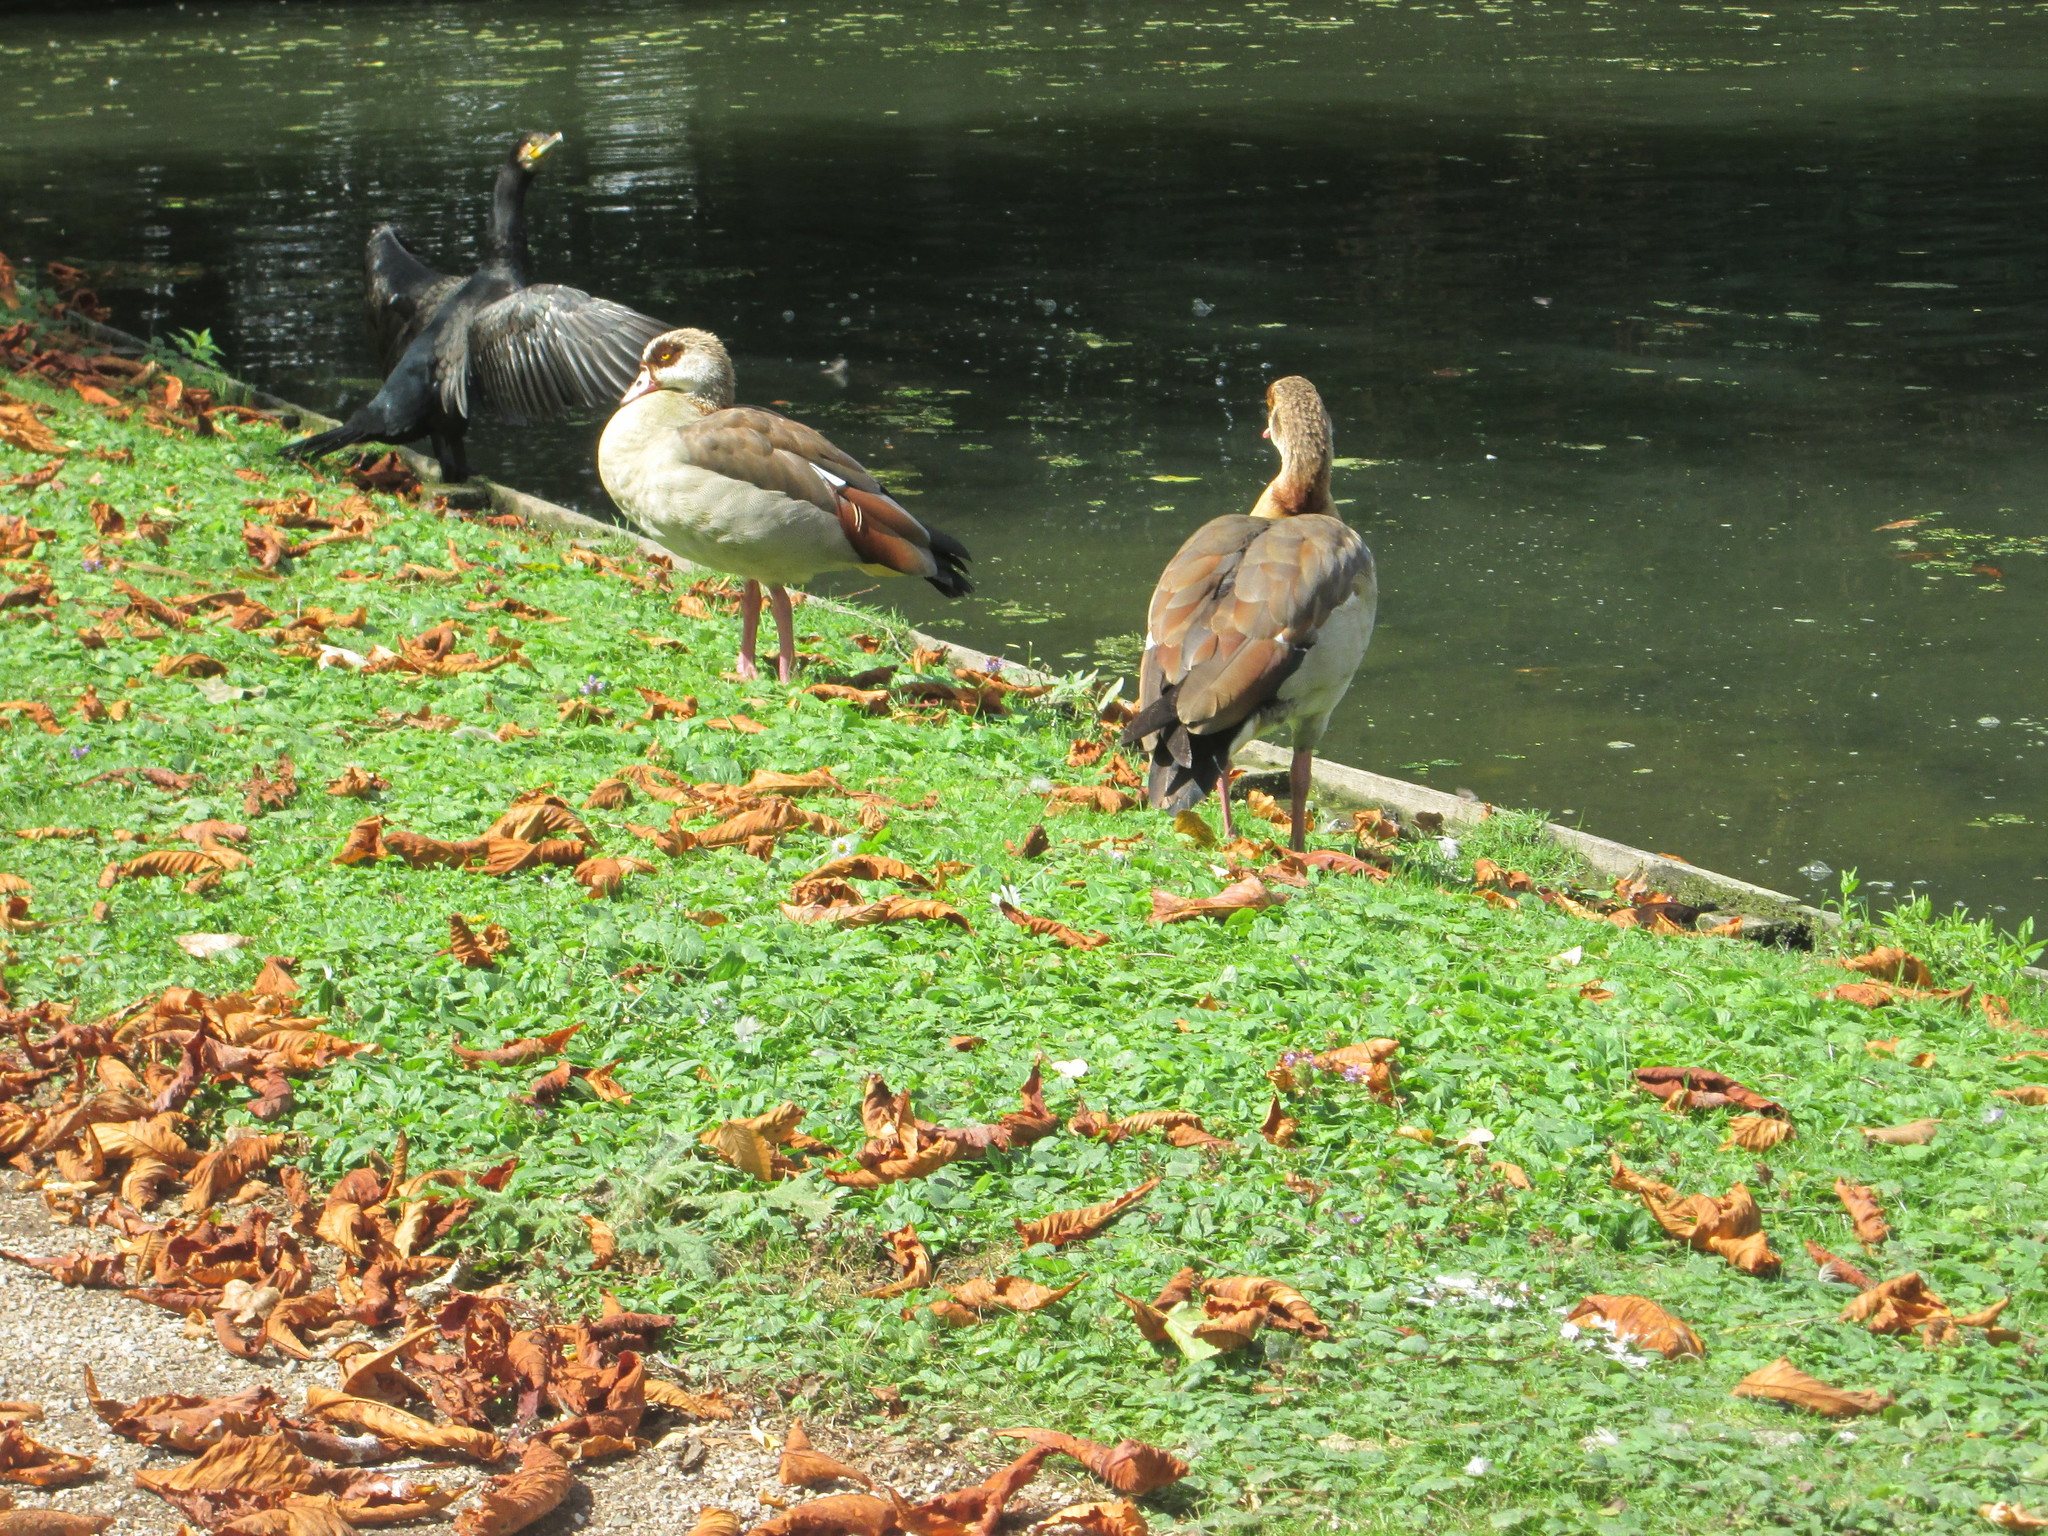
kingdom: Animalia
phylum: Chordata
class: Aves
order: Anseriformes
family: Anatidae
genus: Alopochen
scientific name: Alopochen aegyptiaca
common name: Egyptian goose
